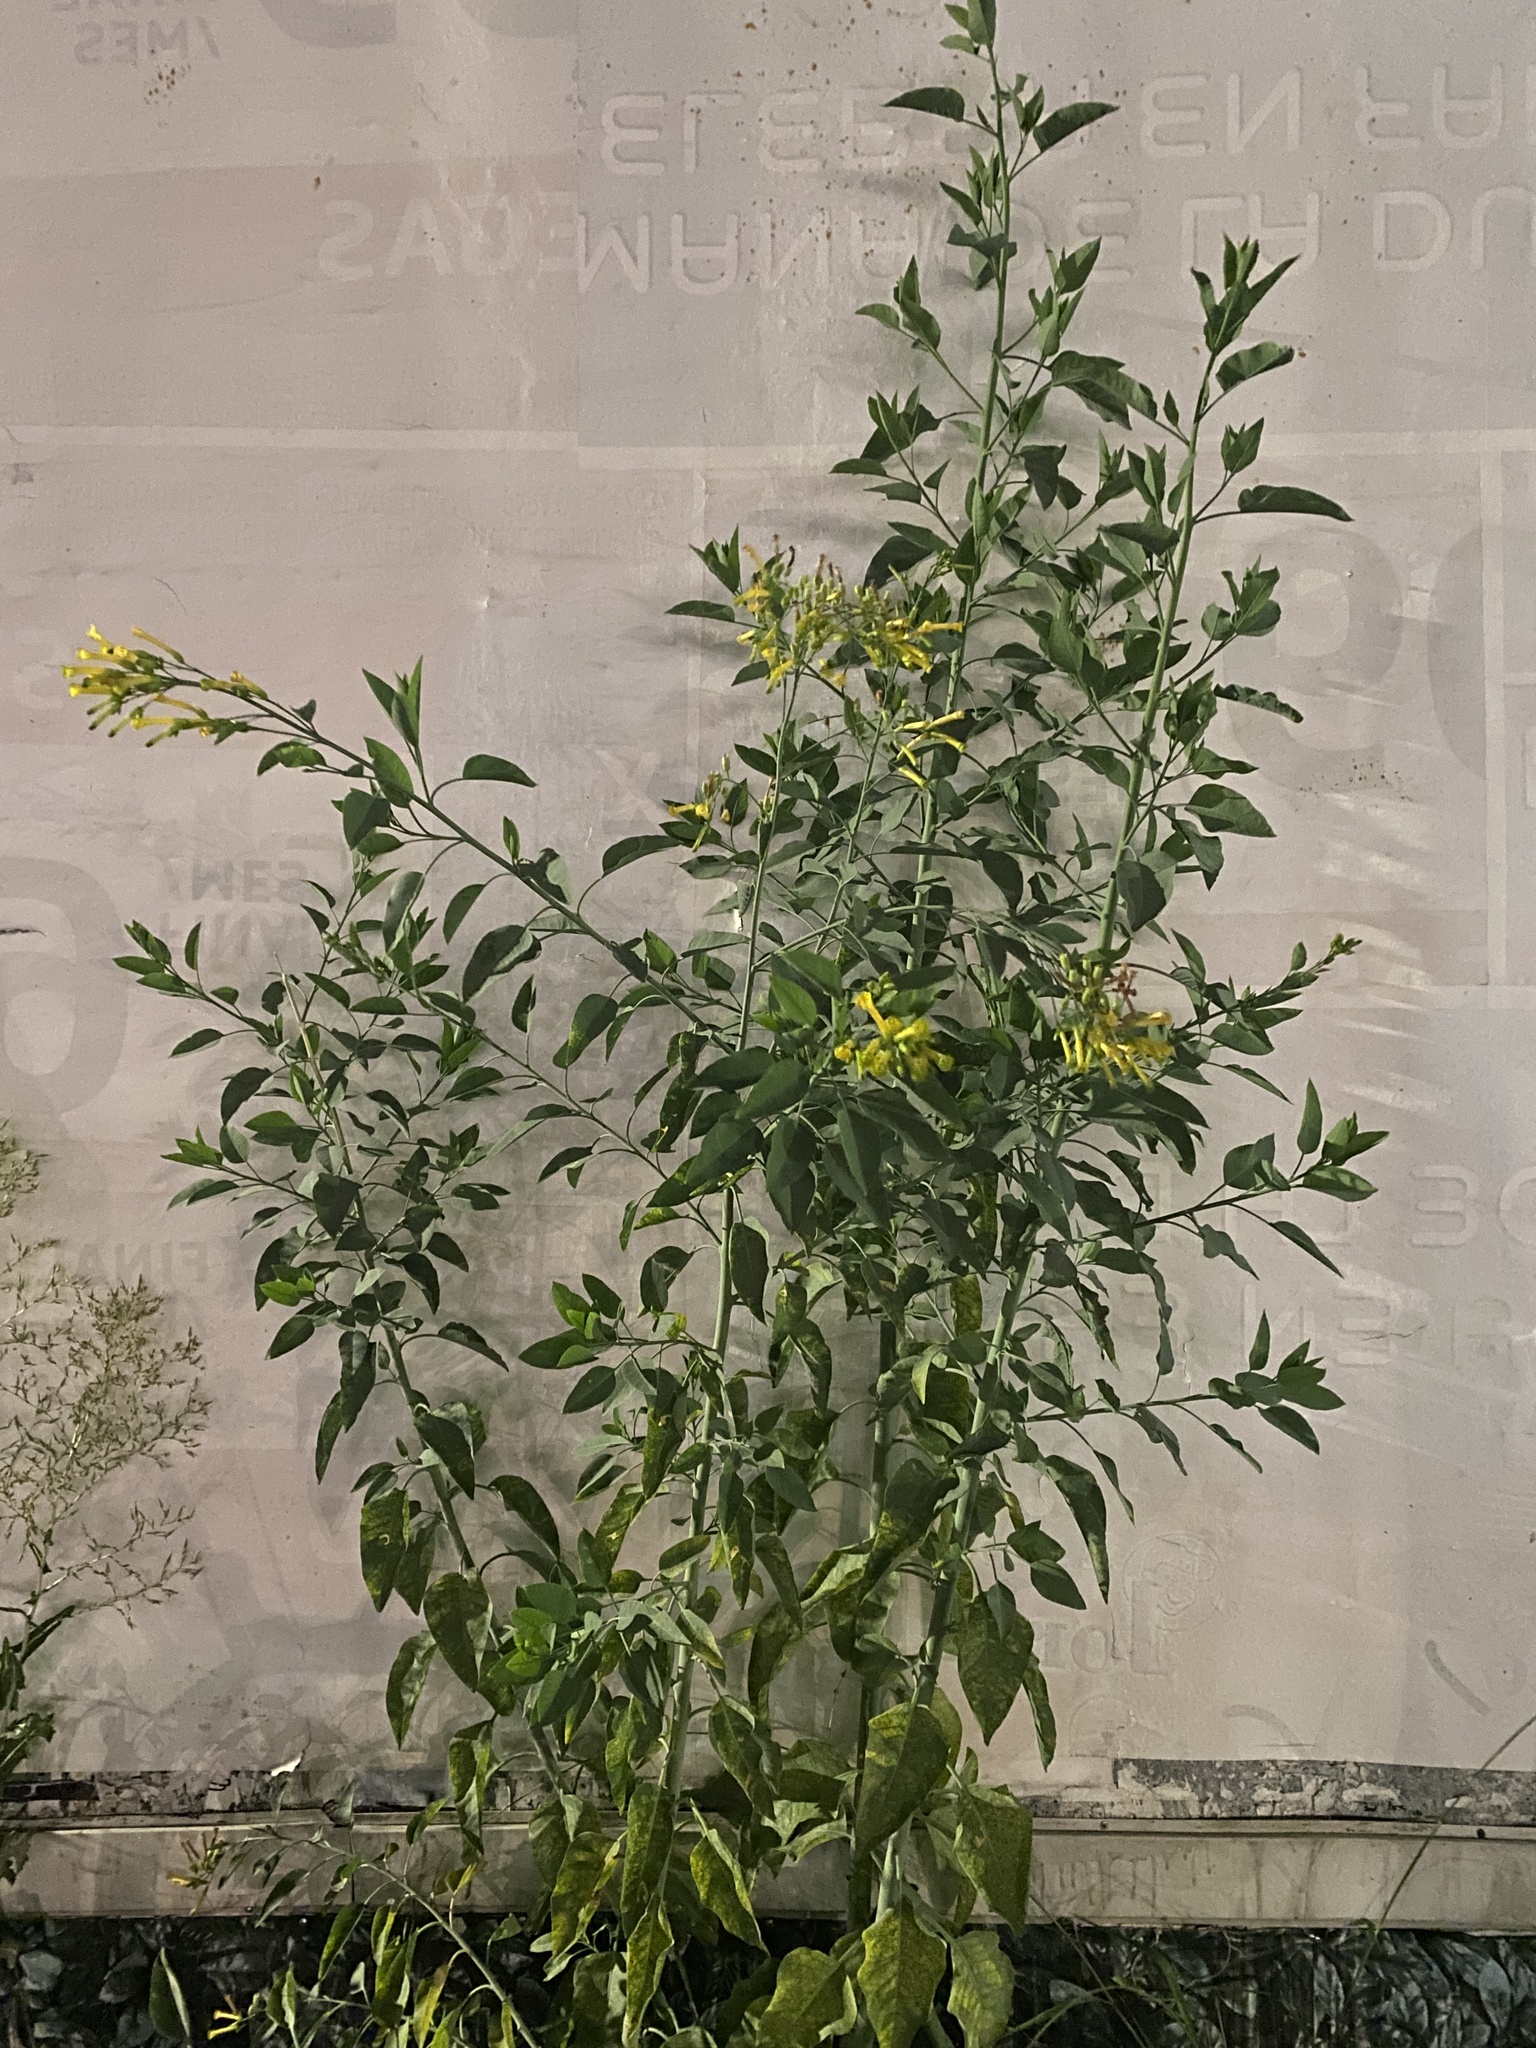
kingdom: Plantae
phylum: Tracheophyta
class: Magnoliopsida
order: Solanales
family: Solanaceae
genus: Nicotiana
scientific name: Nicotiana glauca
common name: Tree tobacco
